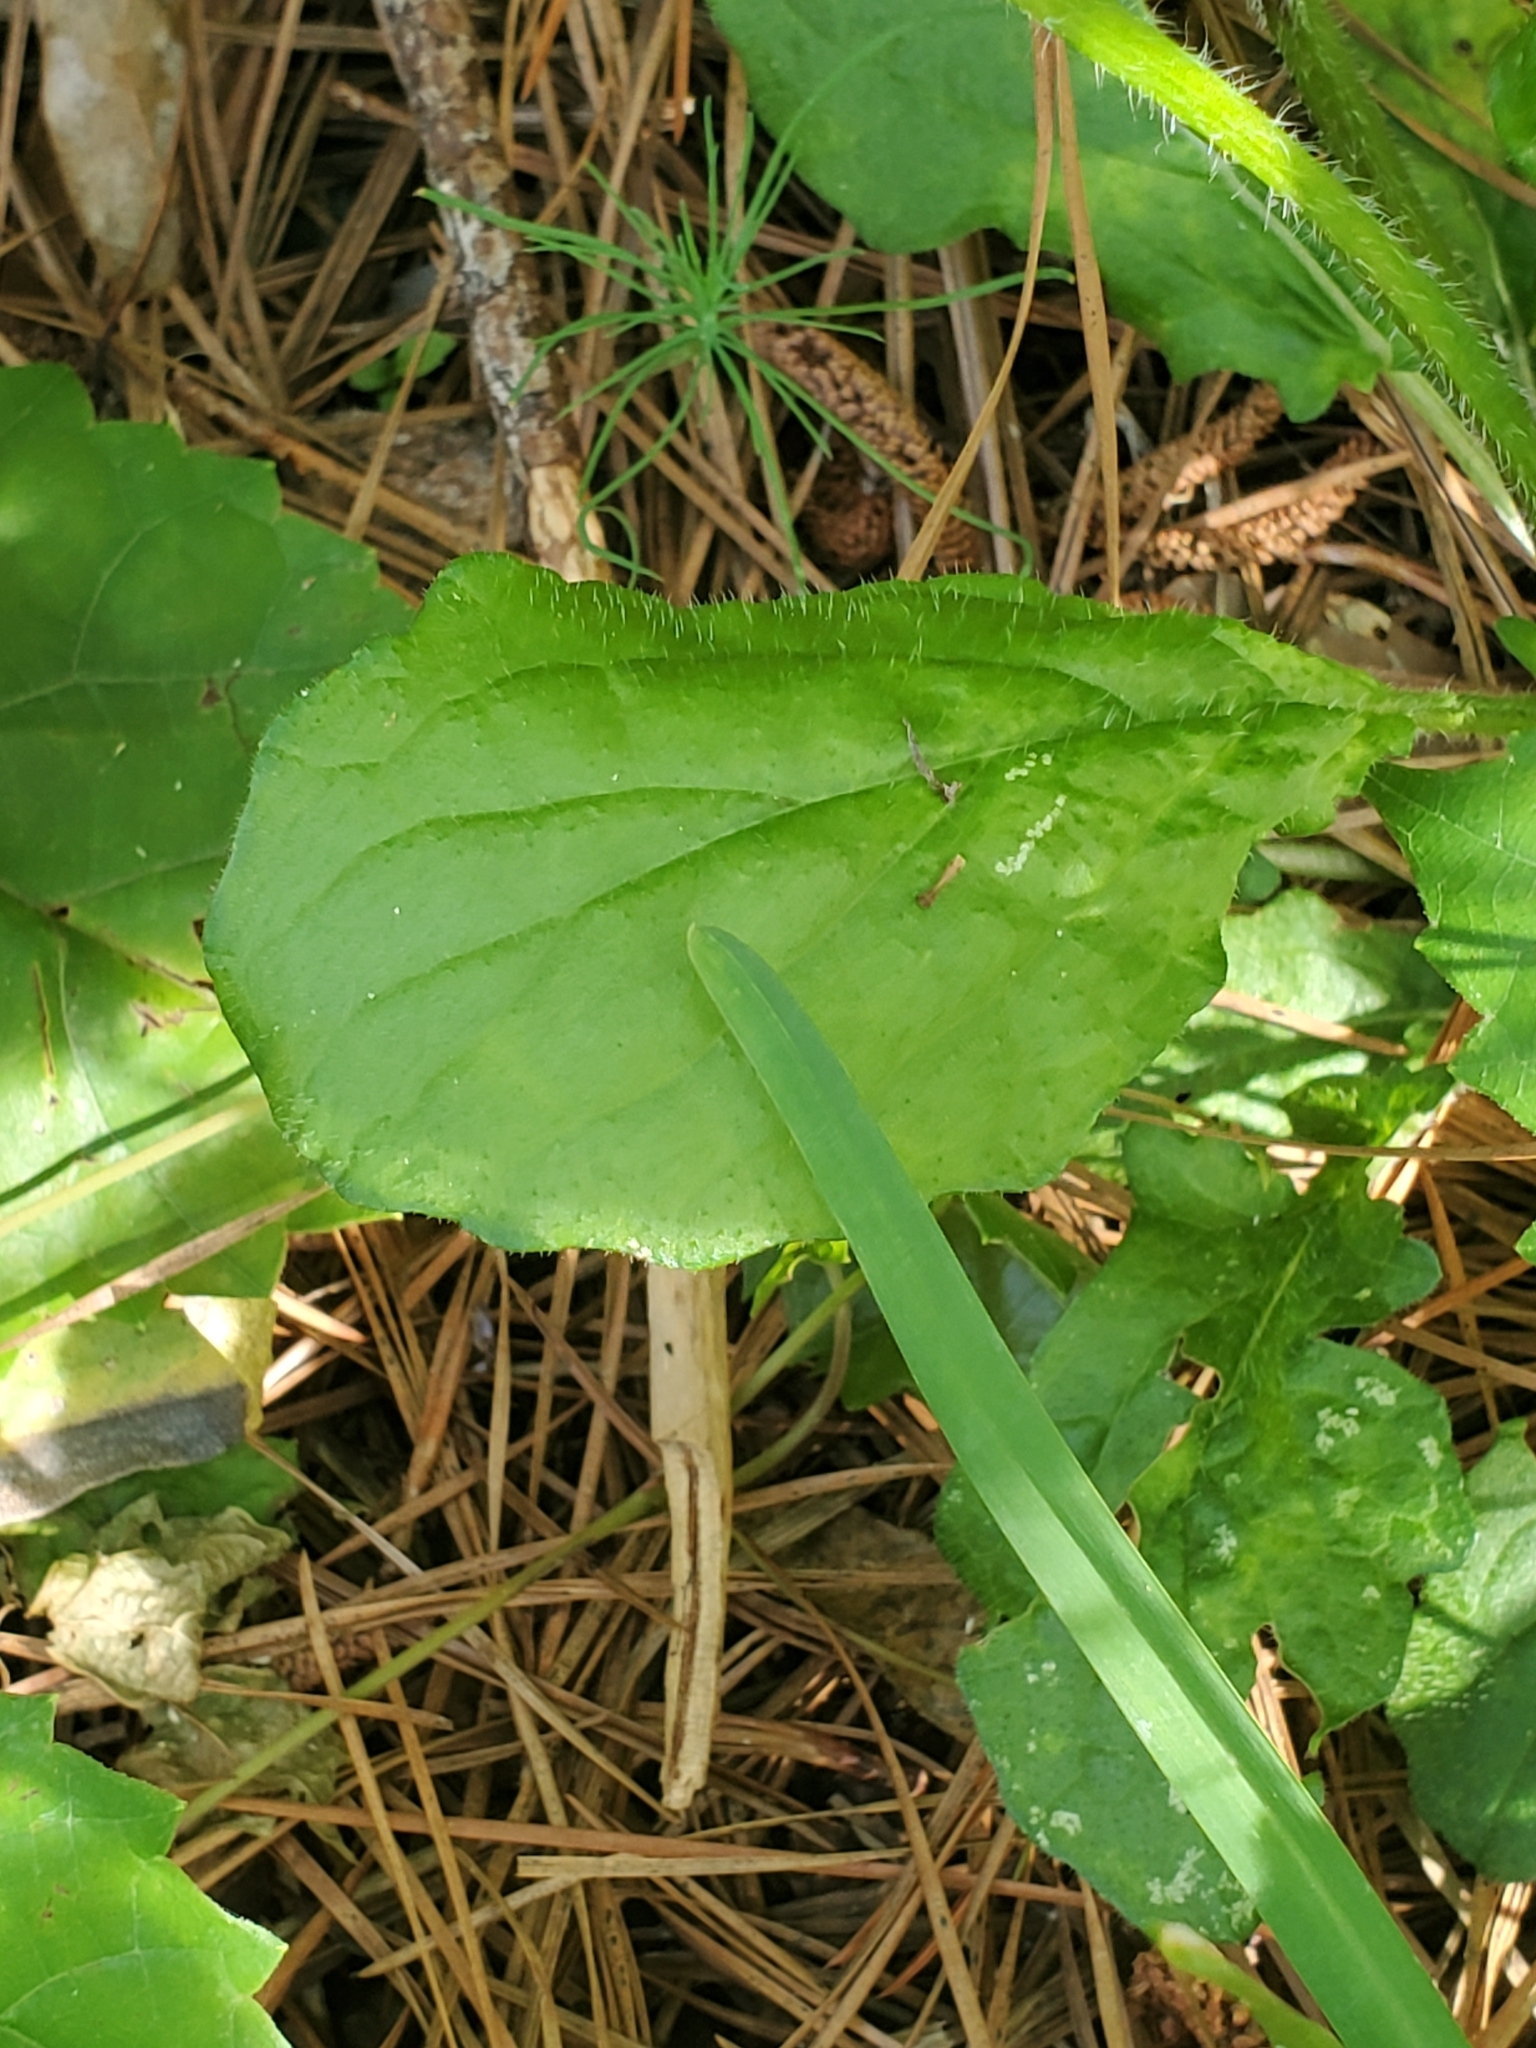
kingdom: Plantae
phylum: Tracheophyta
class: Magnoliopsida
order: Lamiales
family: Lamiaceae
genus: Salvia
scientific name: Salvia lyrata
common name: Cancerweed
